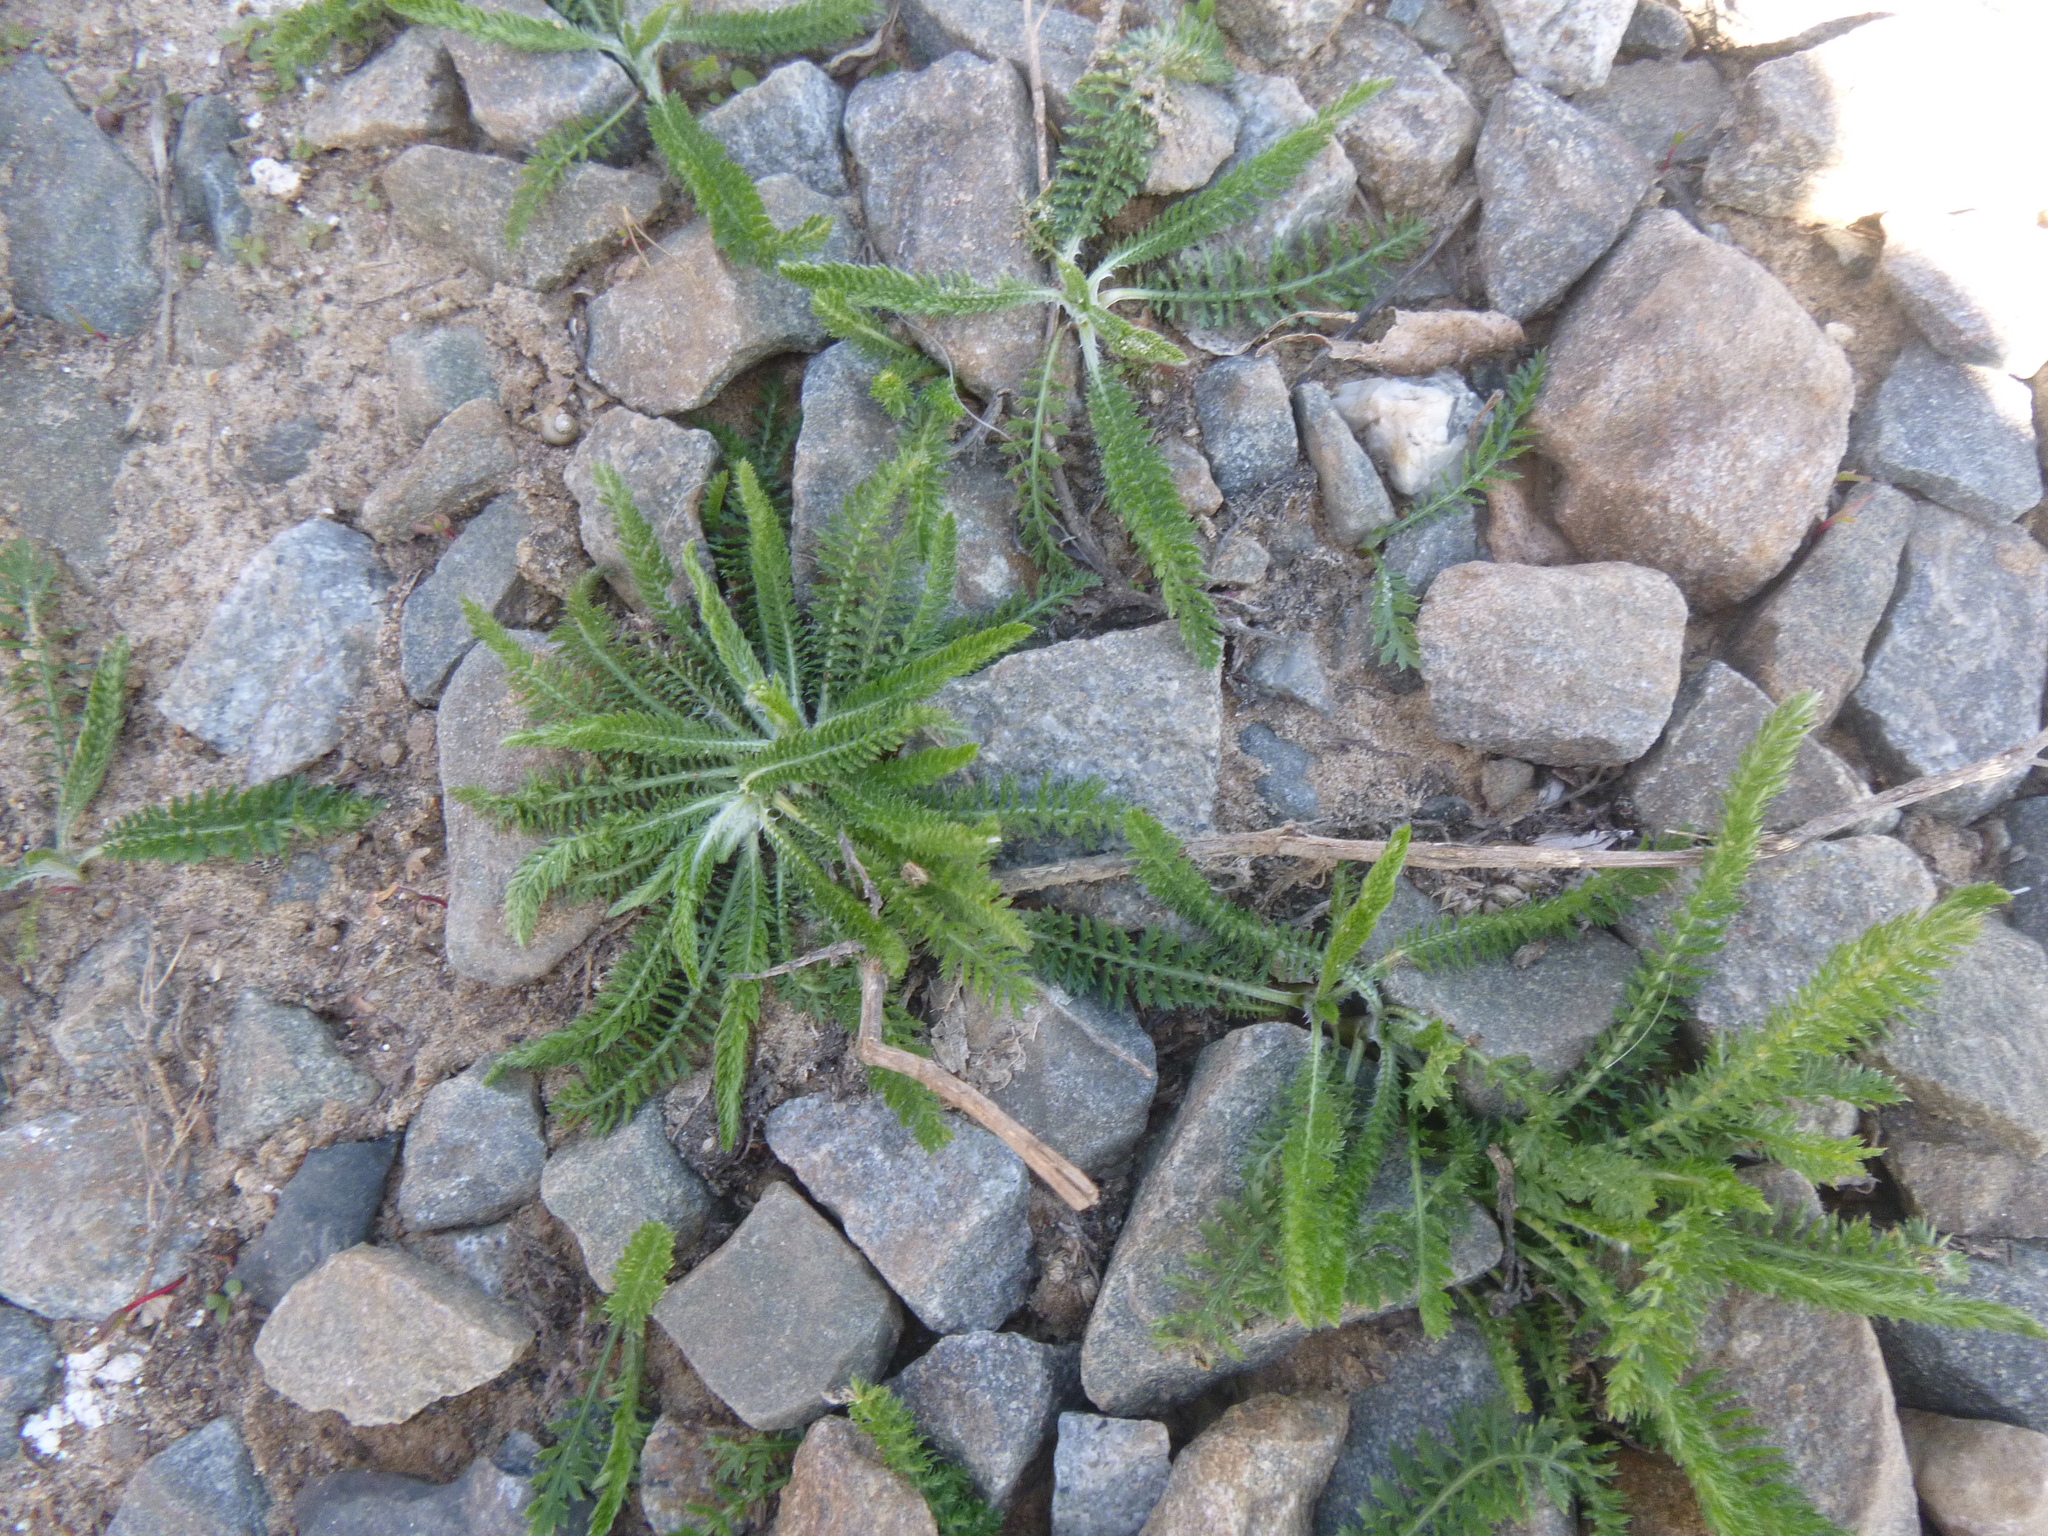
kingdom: Plantae
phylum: Tracheophyta
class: Magnoliopsida
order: Asterales
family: Asteraceae
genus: Achillea
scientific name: Achillea millefolium
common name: Yarrow
